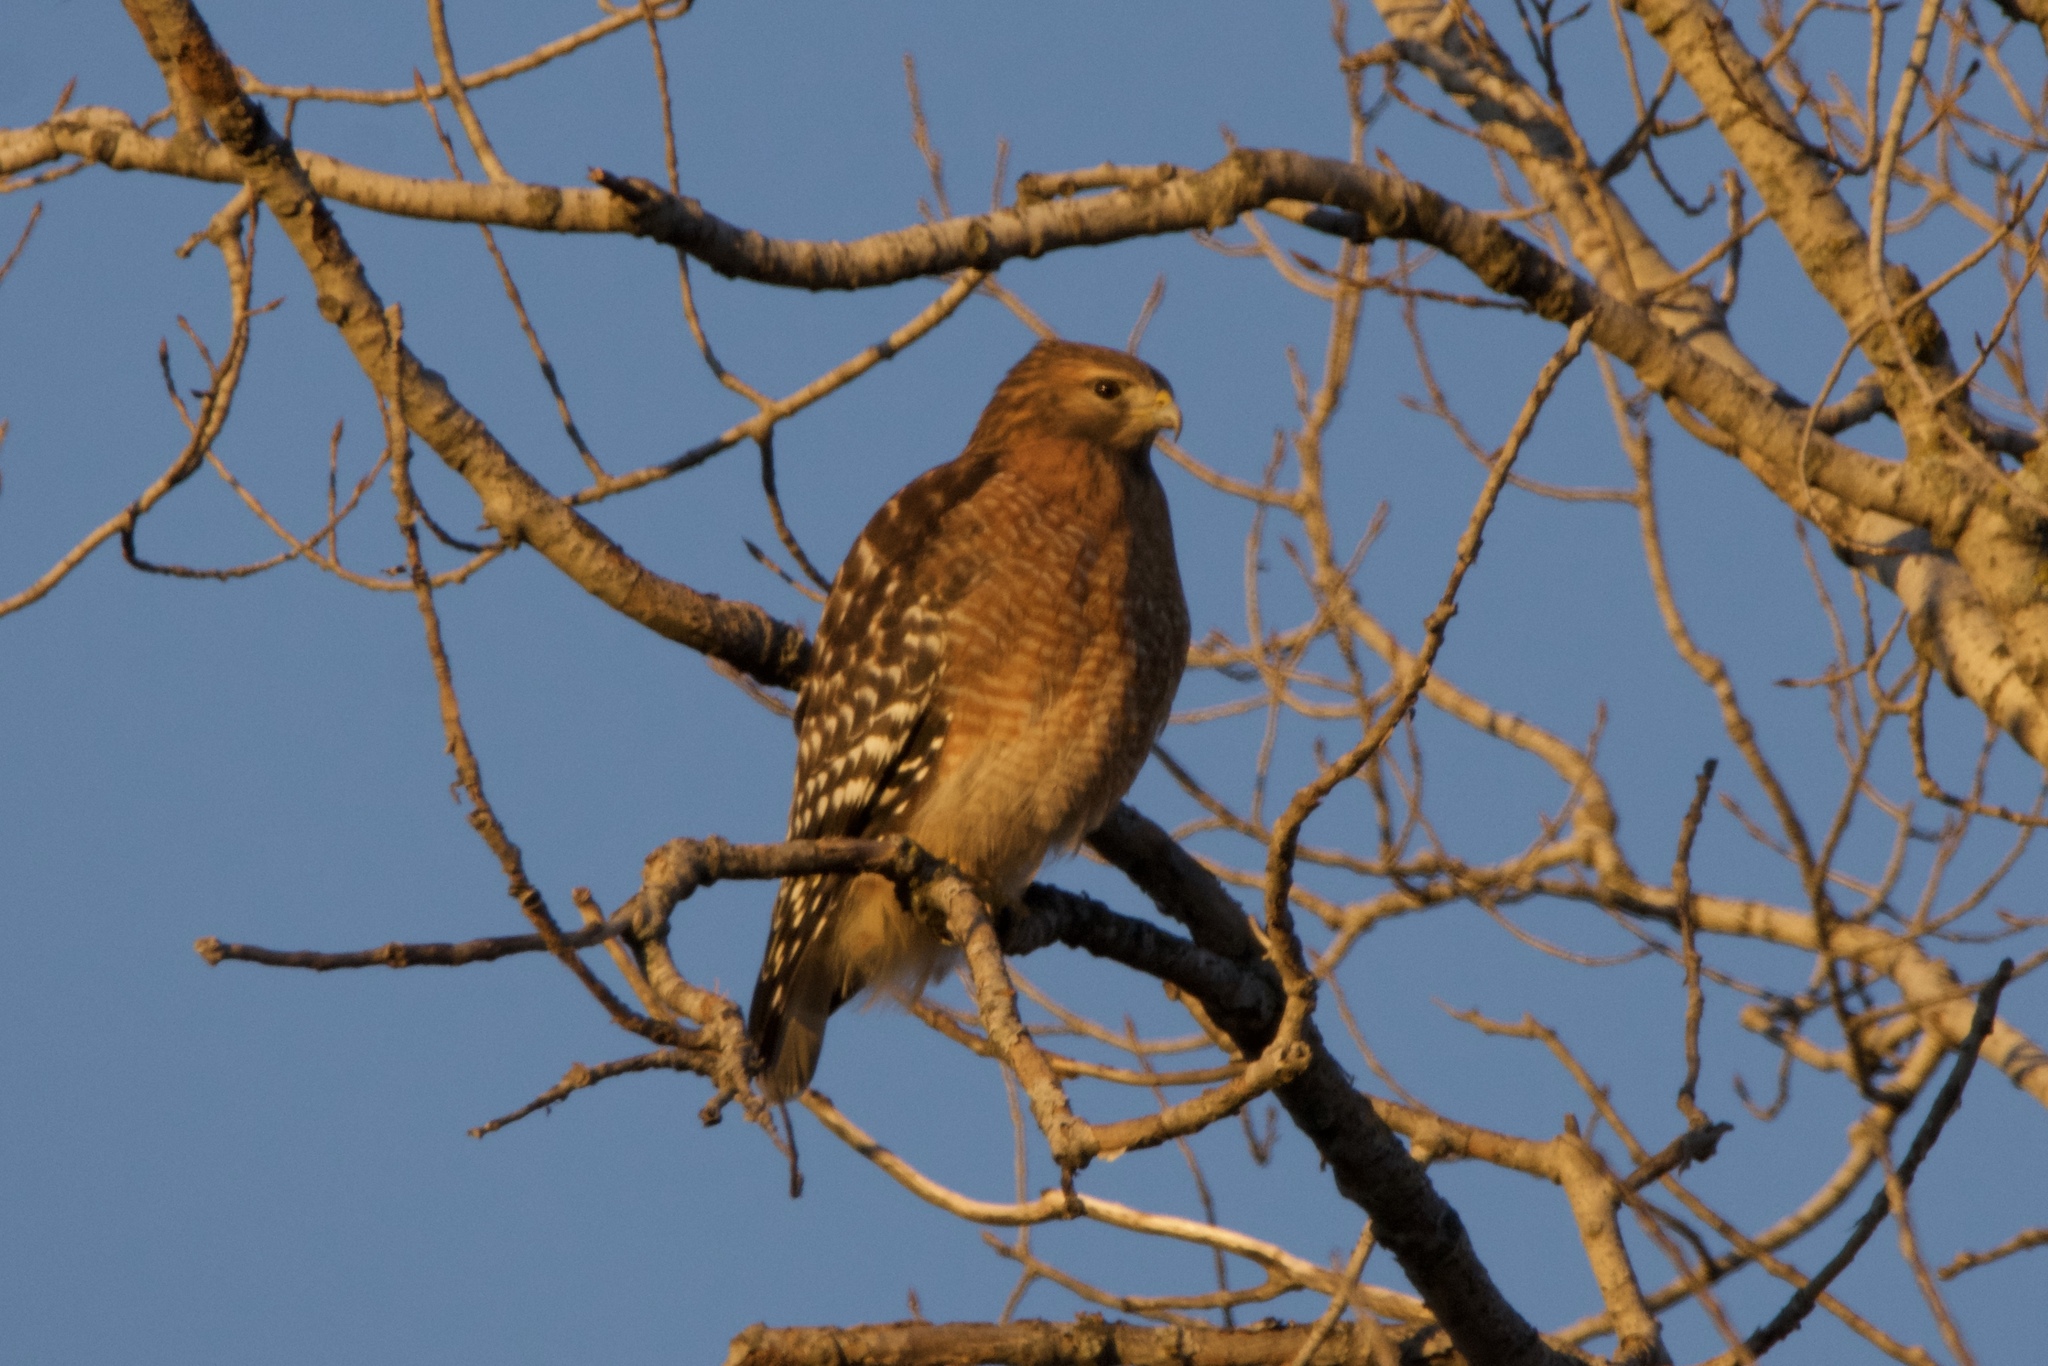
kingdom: Animalia
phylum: Chordata
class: Aves
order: Accipitriformes
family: Accipitridae
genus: Buteo
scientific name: Buteo lineatus
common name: Red-shouldered hawk
